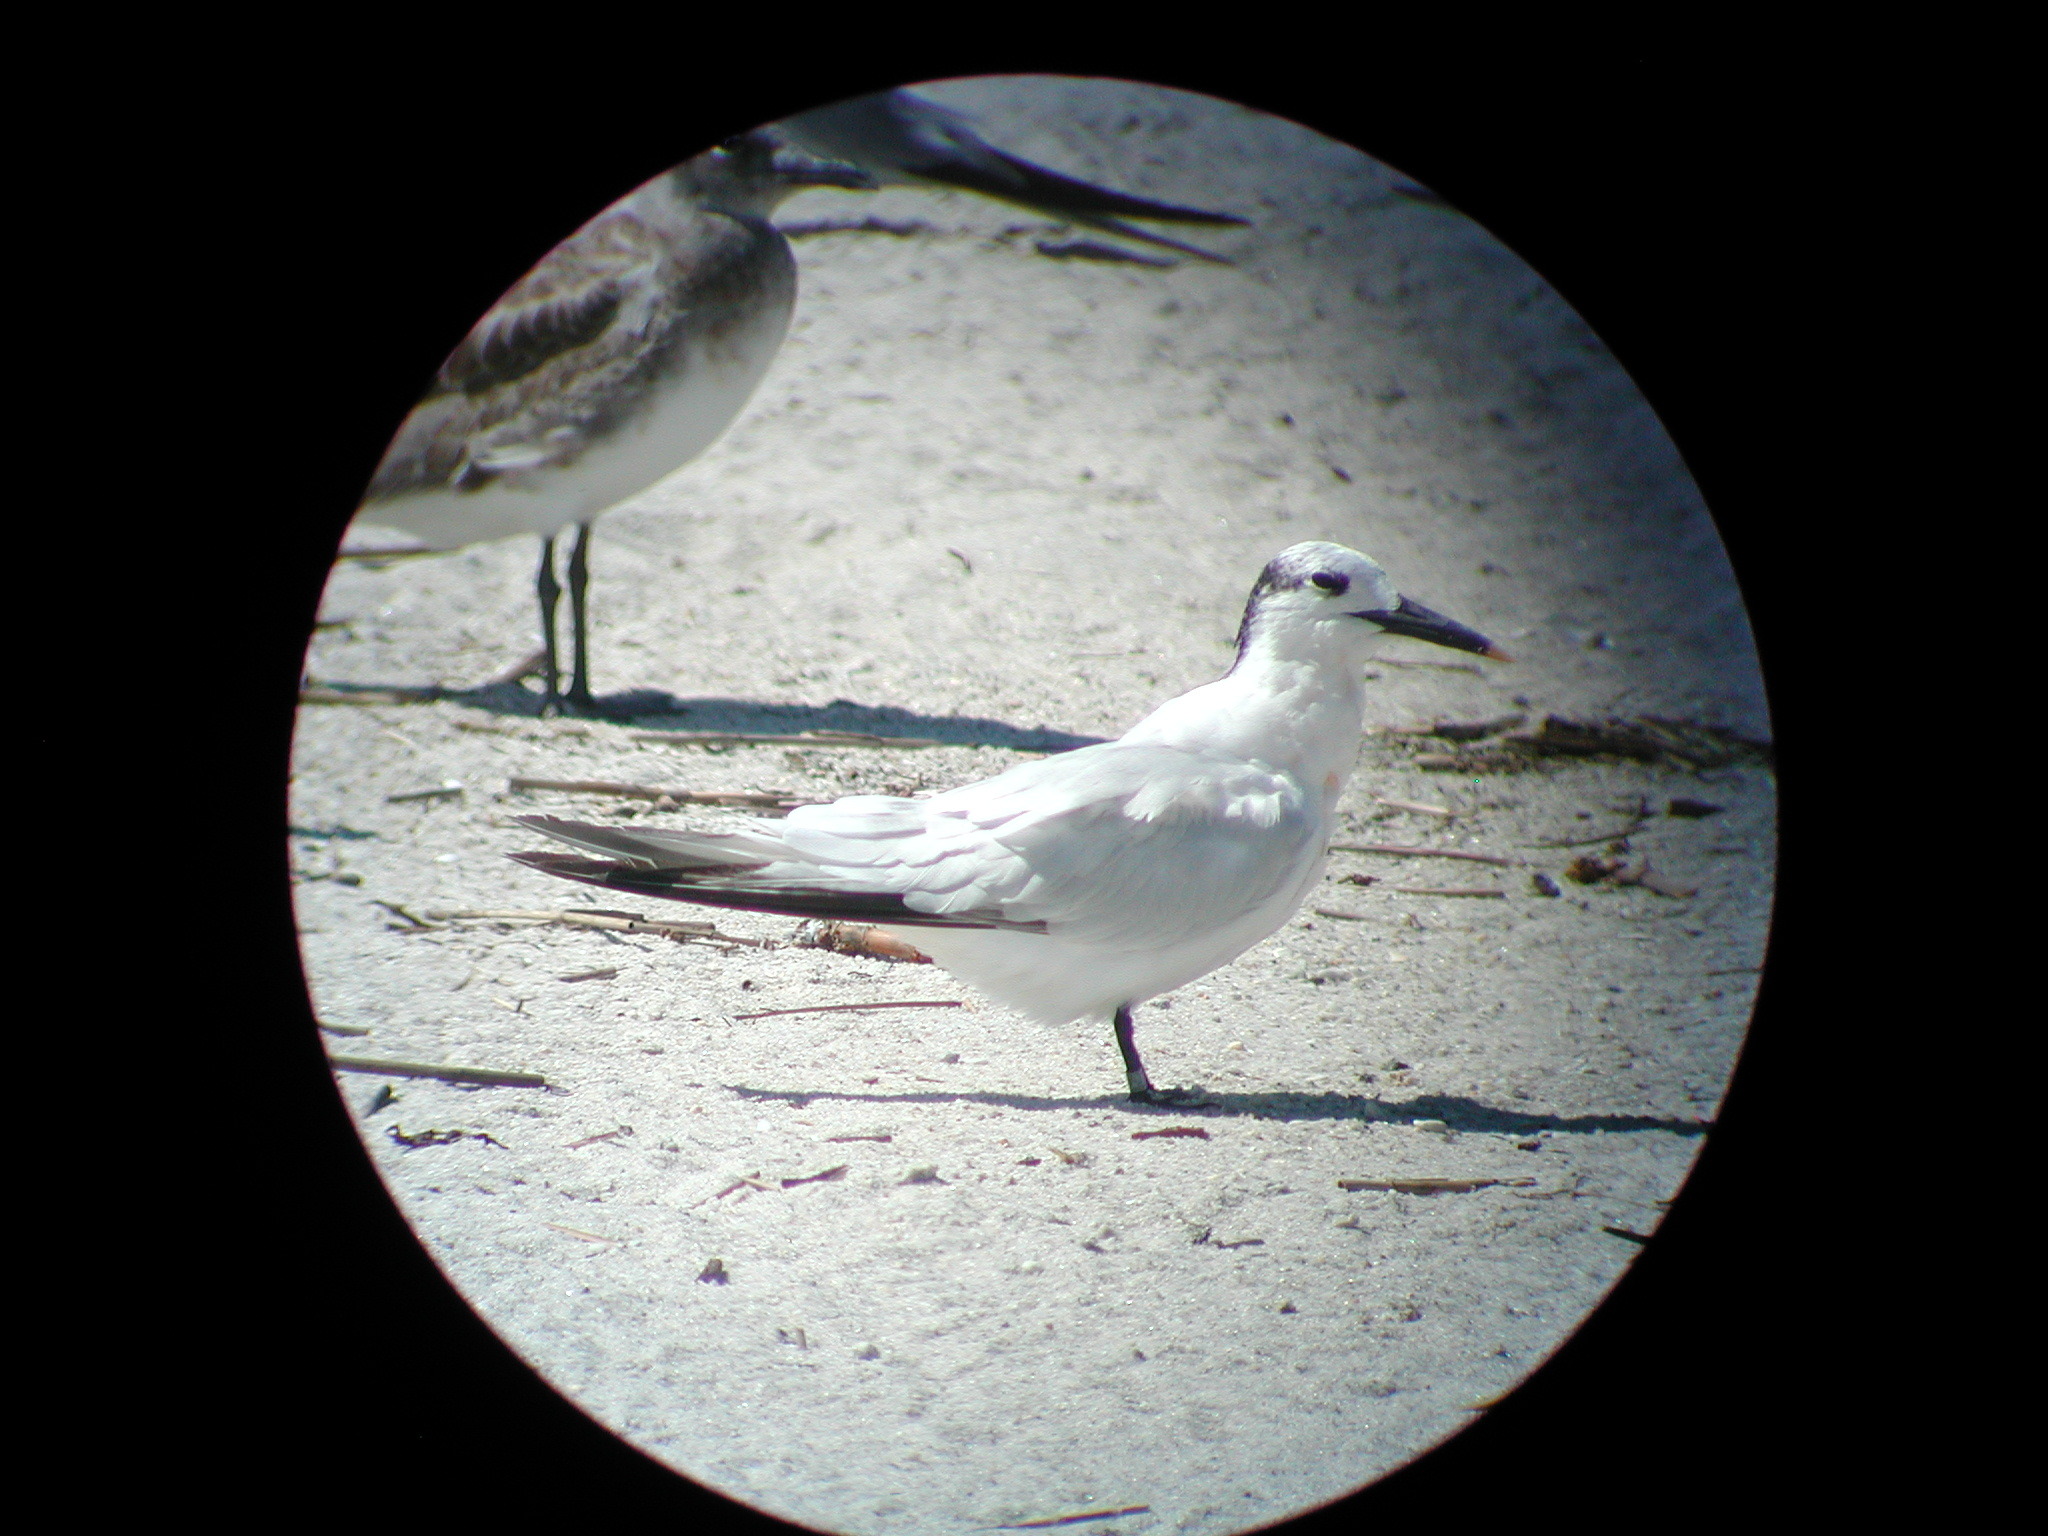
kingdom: Animalia
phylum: Chordata
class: Aves
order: Charadriiformes
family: Laridae
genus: Thalasseus
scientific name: Thalasseus sandvicensis
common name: Sandwich tern
